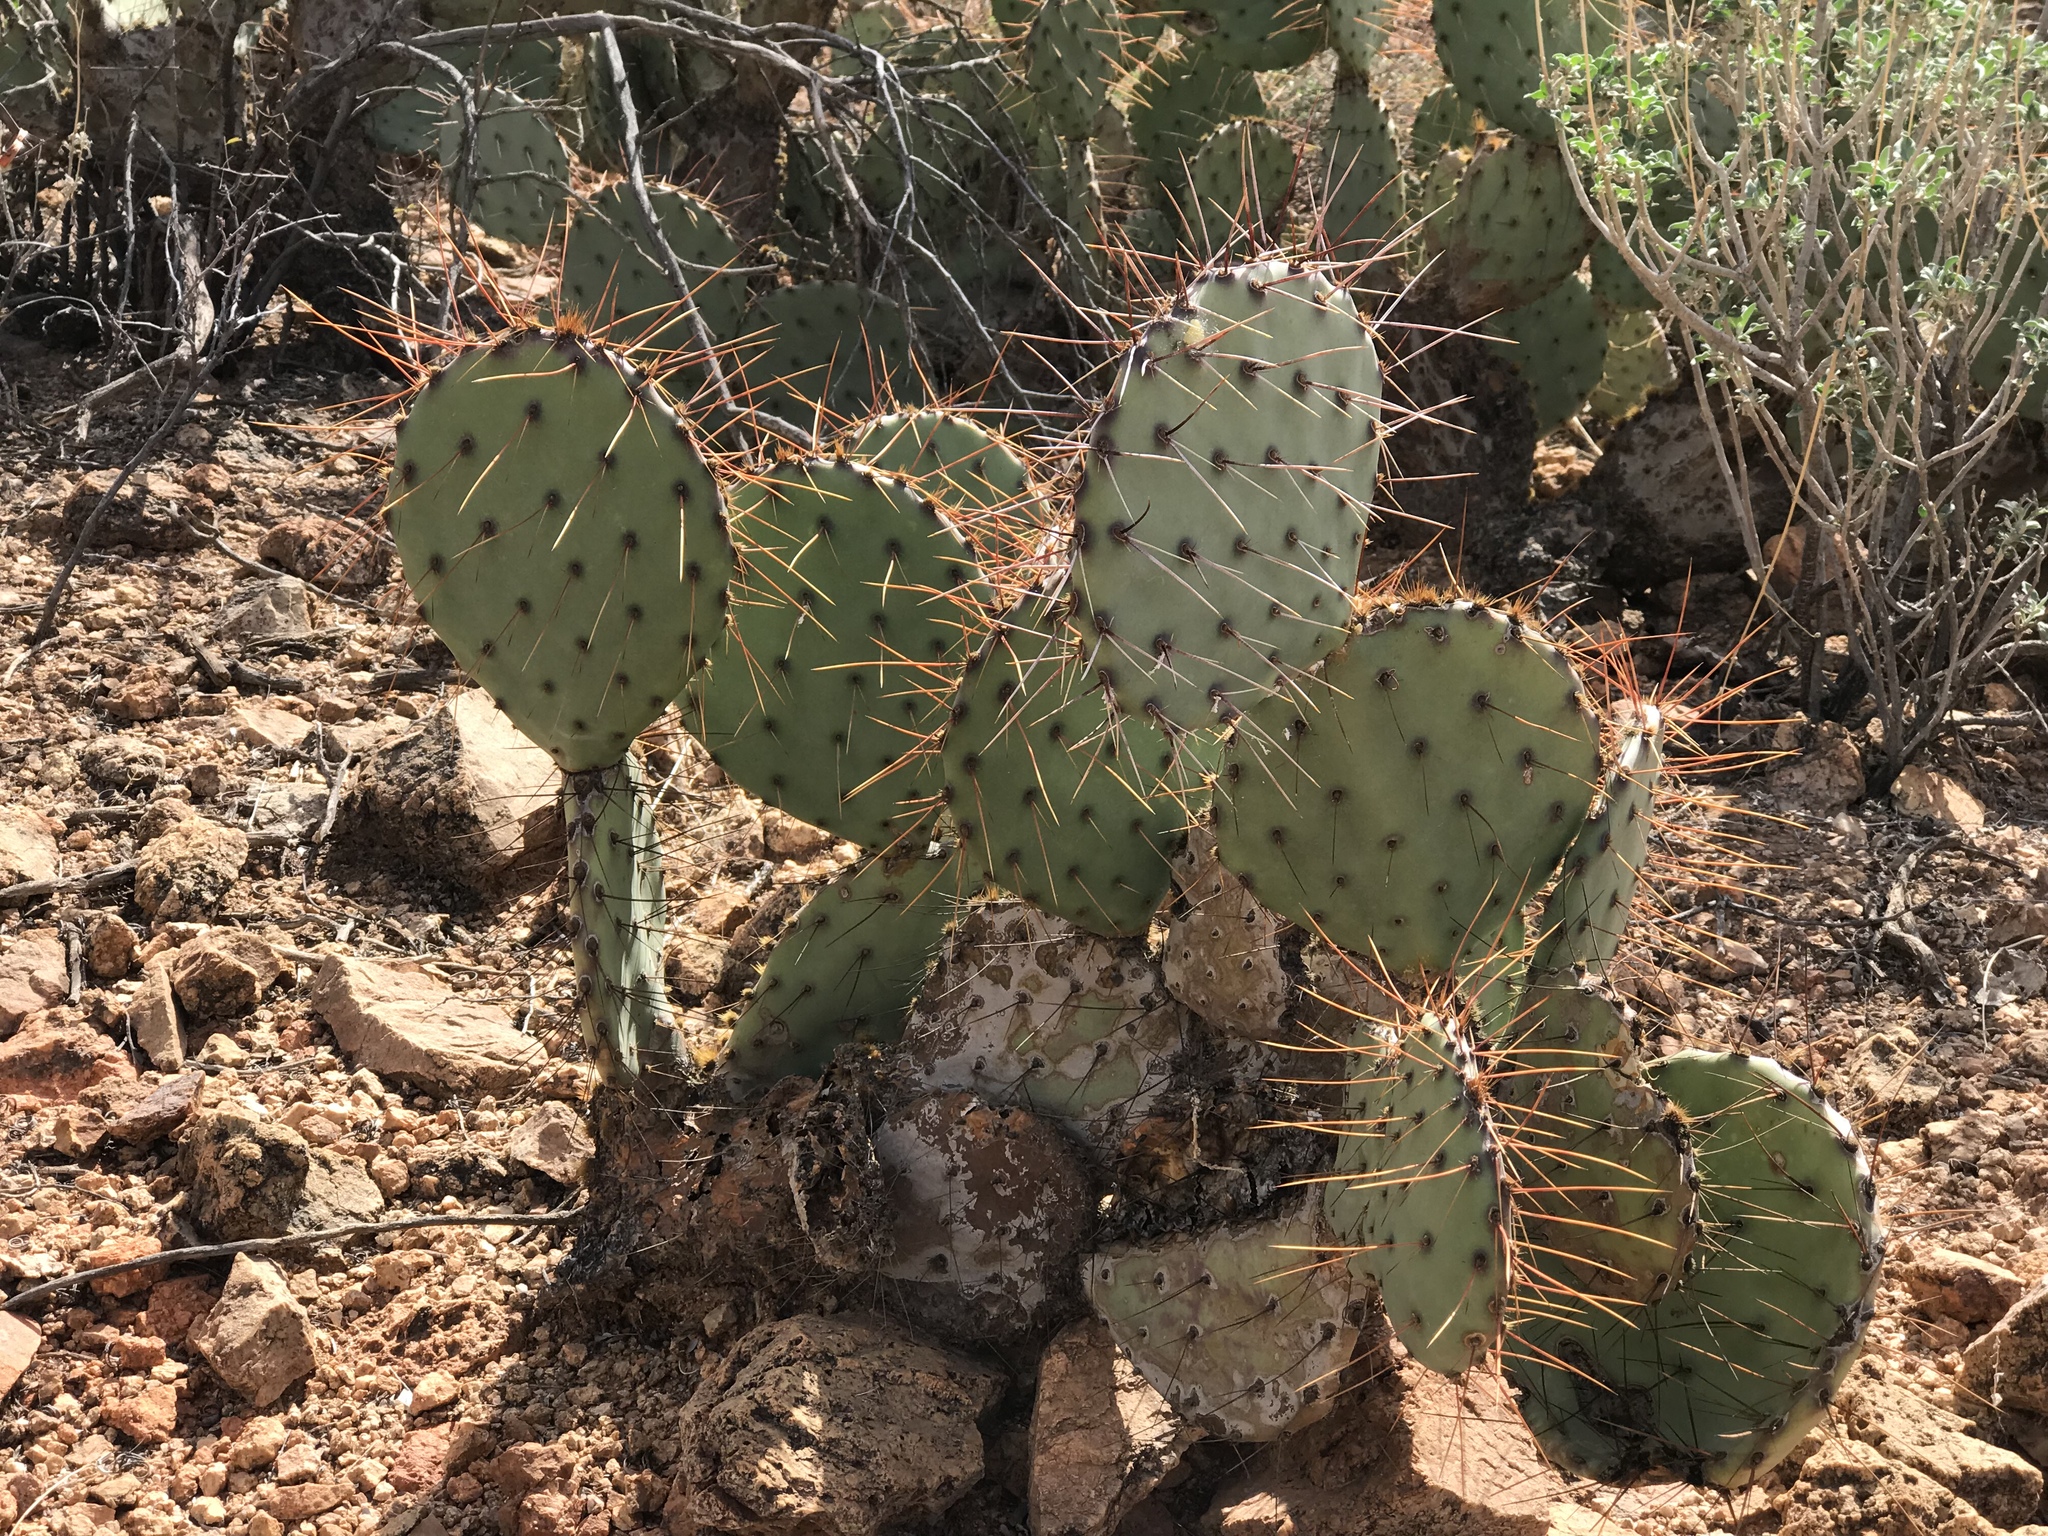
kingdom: Plantae
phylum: Tracheophyta
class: Magnoliopsida
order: Caryophyllales
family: Cactaceae
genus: Opuntia
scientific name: Opuntia phaeacantha
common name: New mexico prickly-pear
